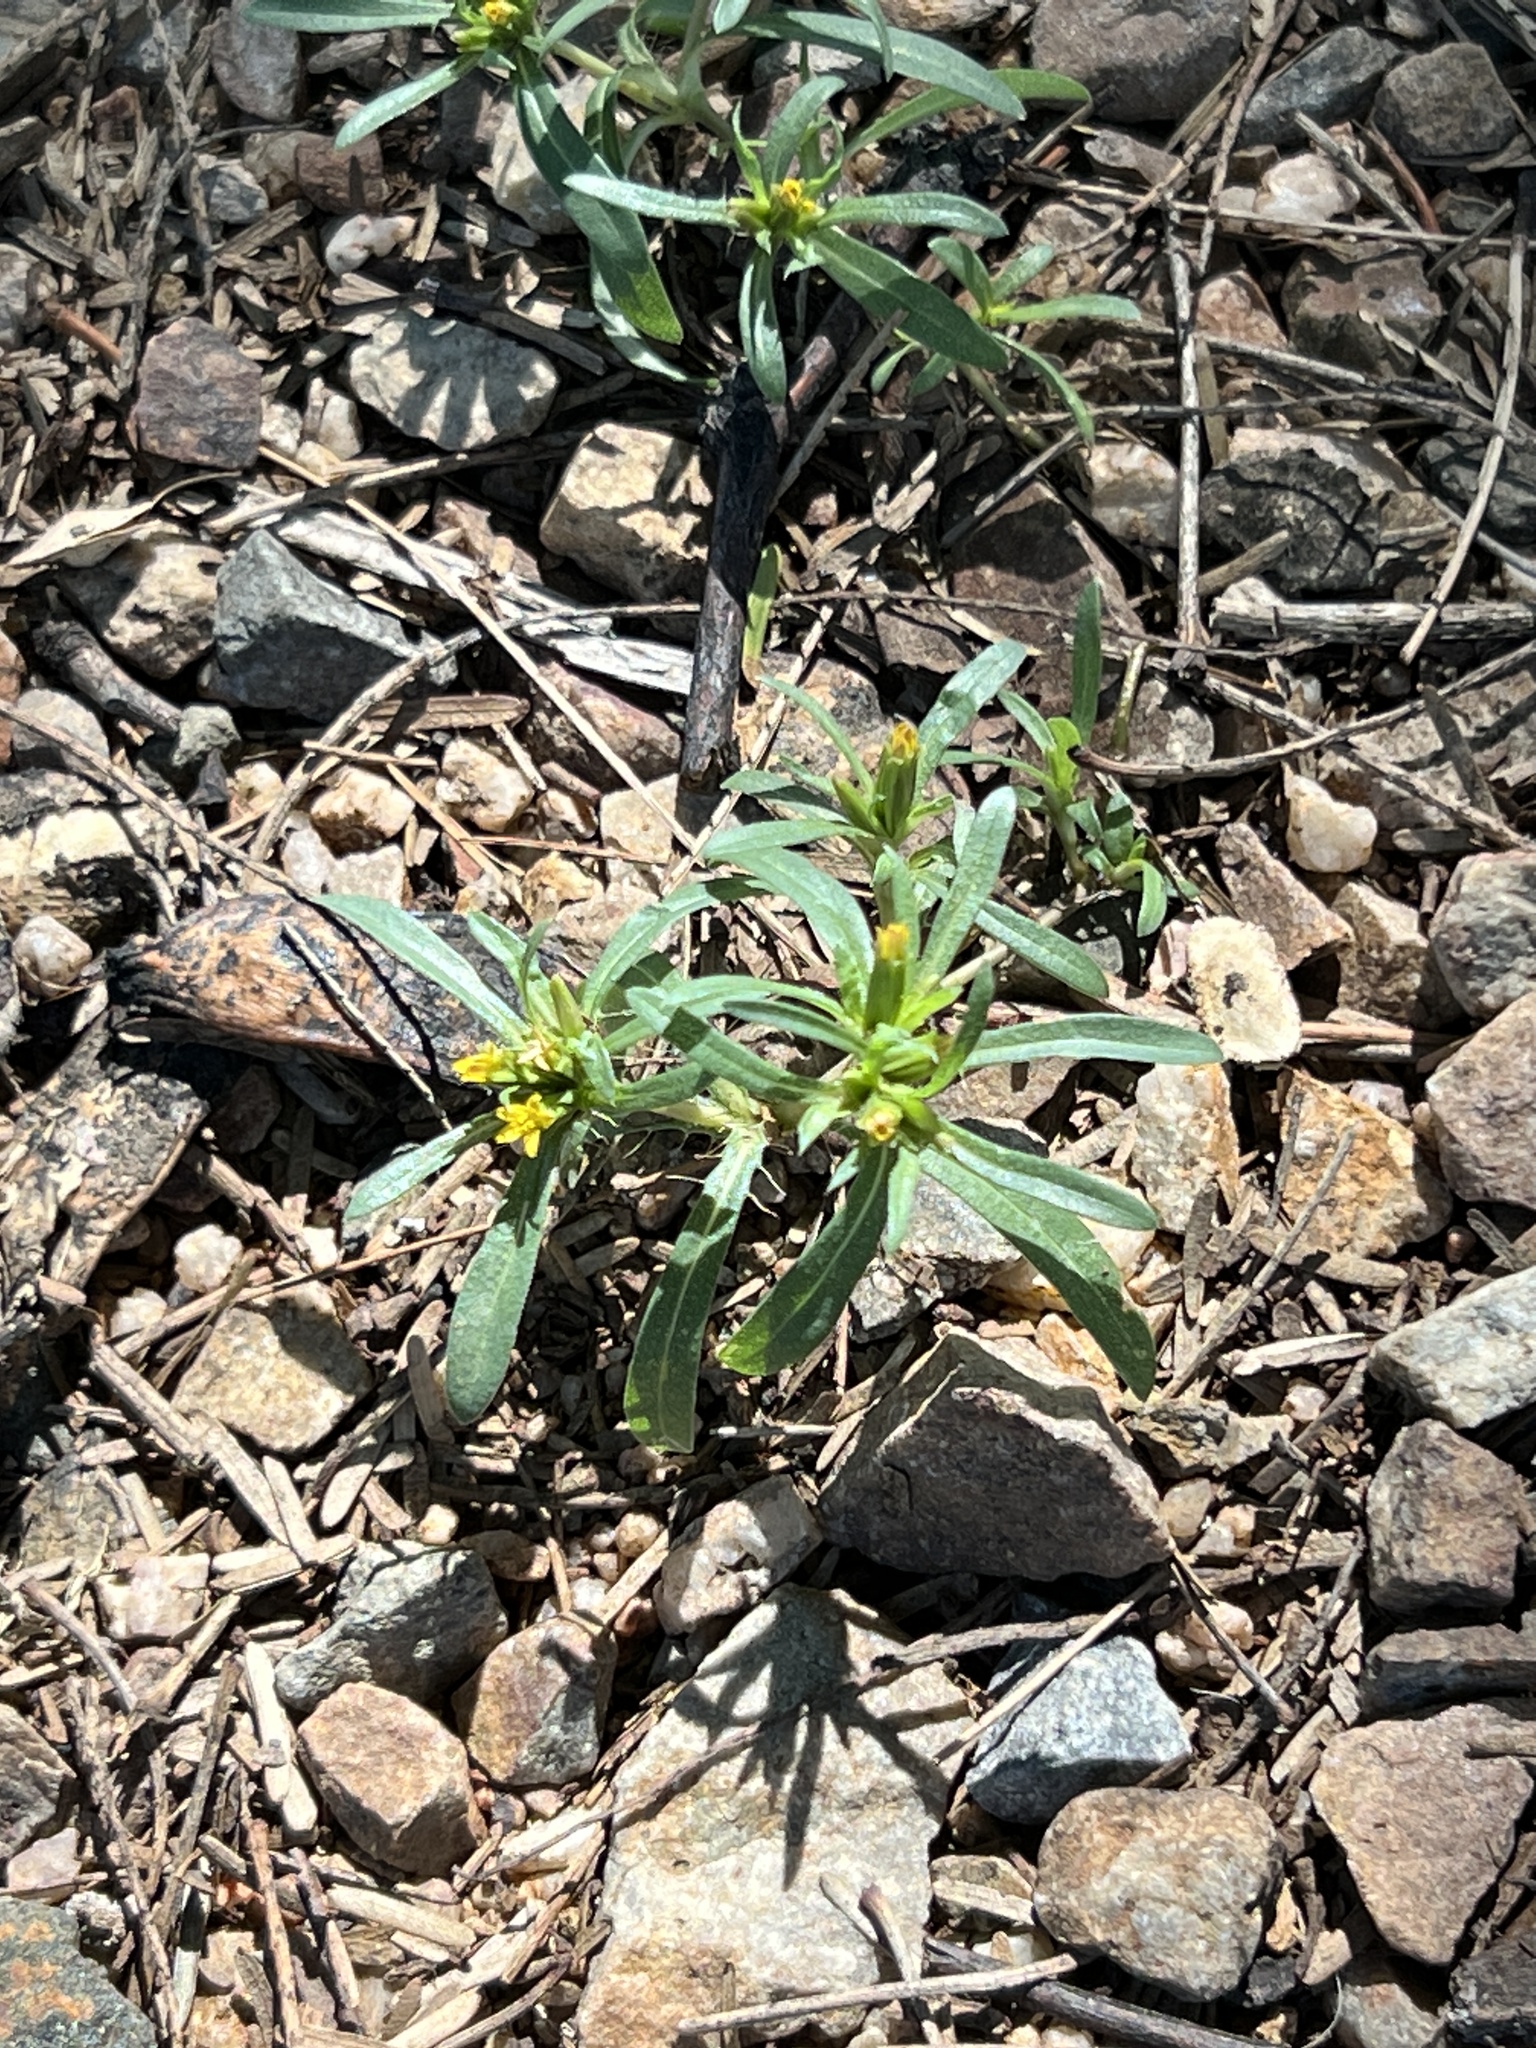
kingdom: Plantae
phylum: Tracheophyta
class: Magnoliopsida
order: Asterales
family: Asteraceae
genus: Pectis
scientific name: Pectis prostrata
